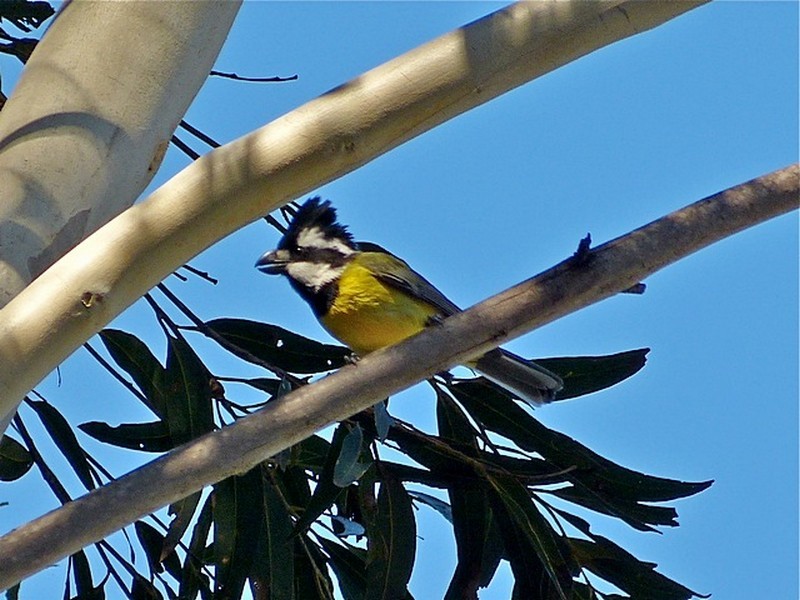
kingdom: Animalia
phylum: Chordata
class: Aves
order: Passeriformes
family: Pachycephalidae
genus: Falcunculus
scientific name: Falcunculus frontatus
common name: Crested shriketit
